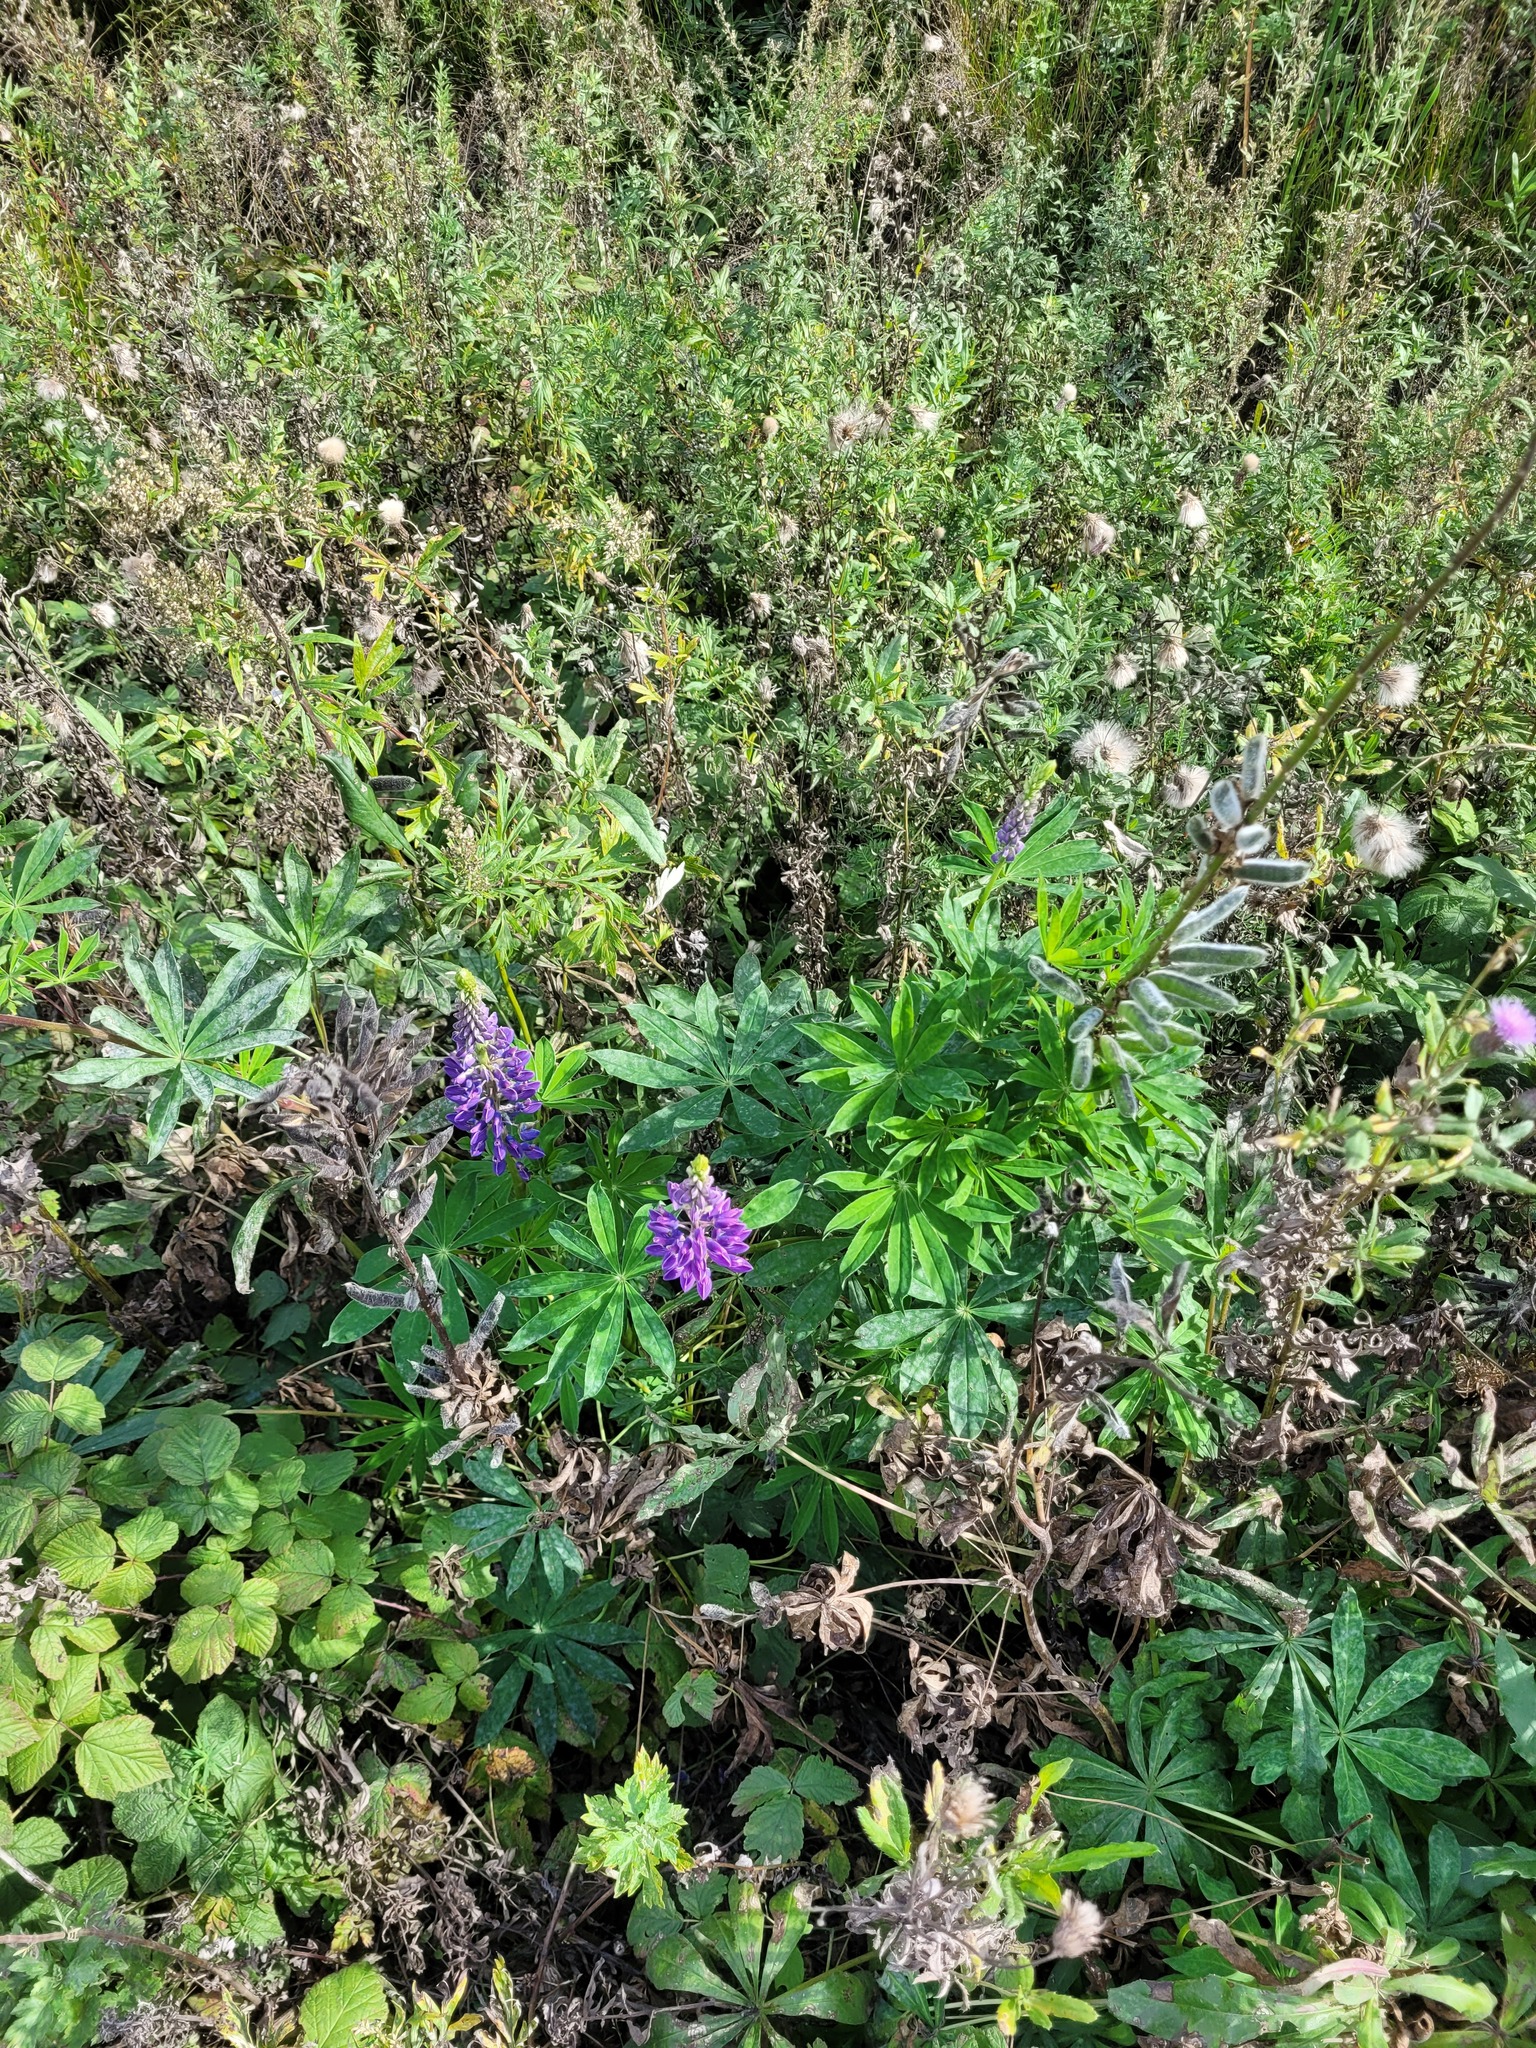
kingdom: Plantae
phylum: Tracheophyta
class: Magnoliopsida
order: Fabales
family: Fabaceae
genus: Lupinus
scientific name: Lupinus polyphyllus
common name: Garden lupin
